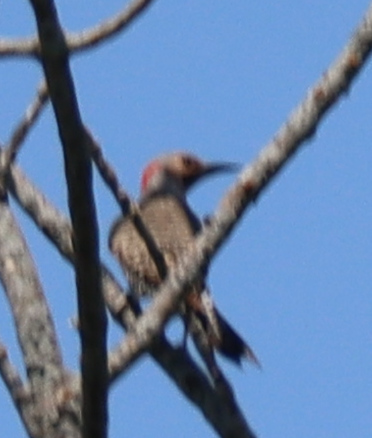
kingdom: Animalia
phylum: Chordata
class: Aves
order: Piciformes
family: Picidae
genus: Colaptes
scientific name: Colaptes auratus
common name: Northern flicker
